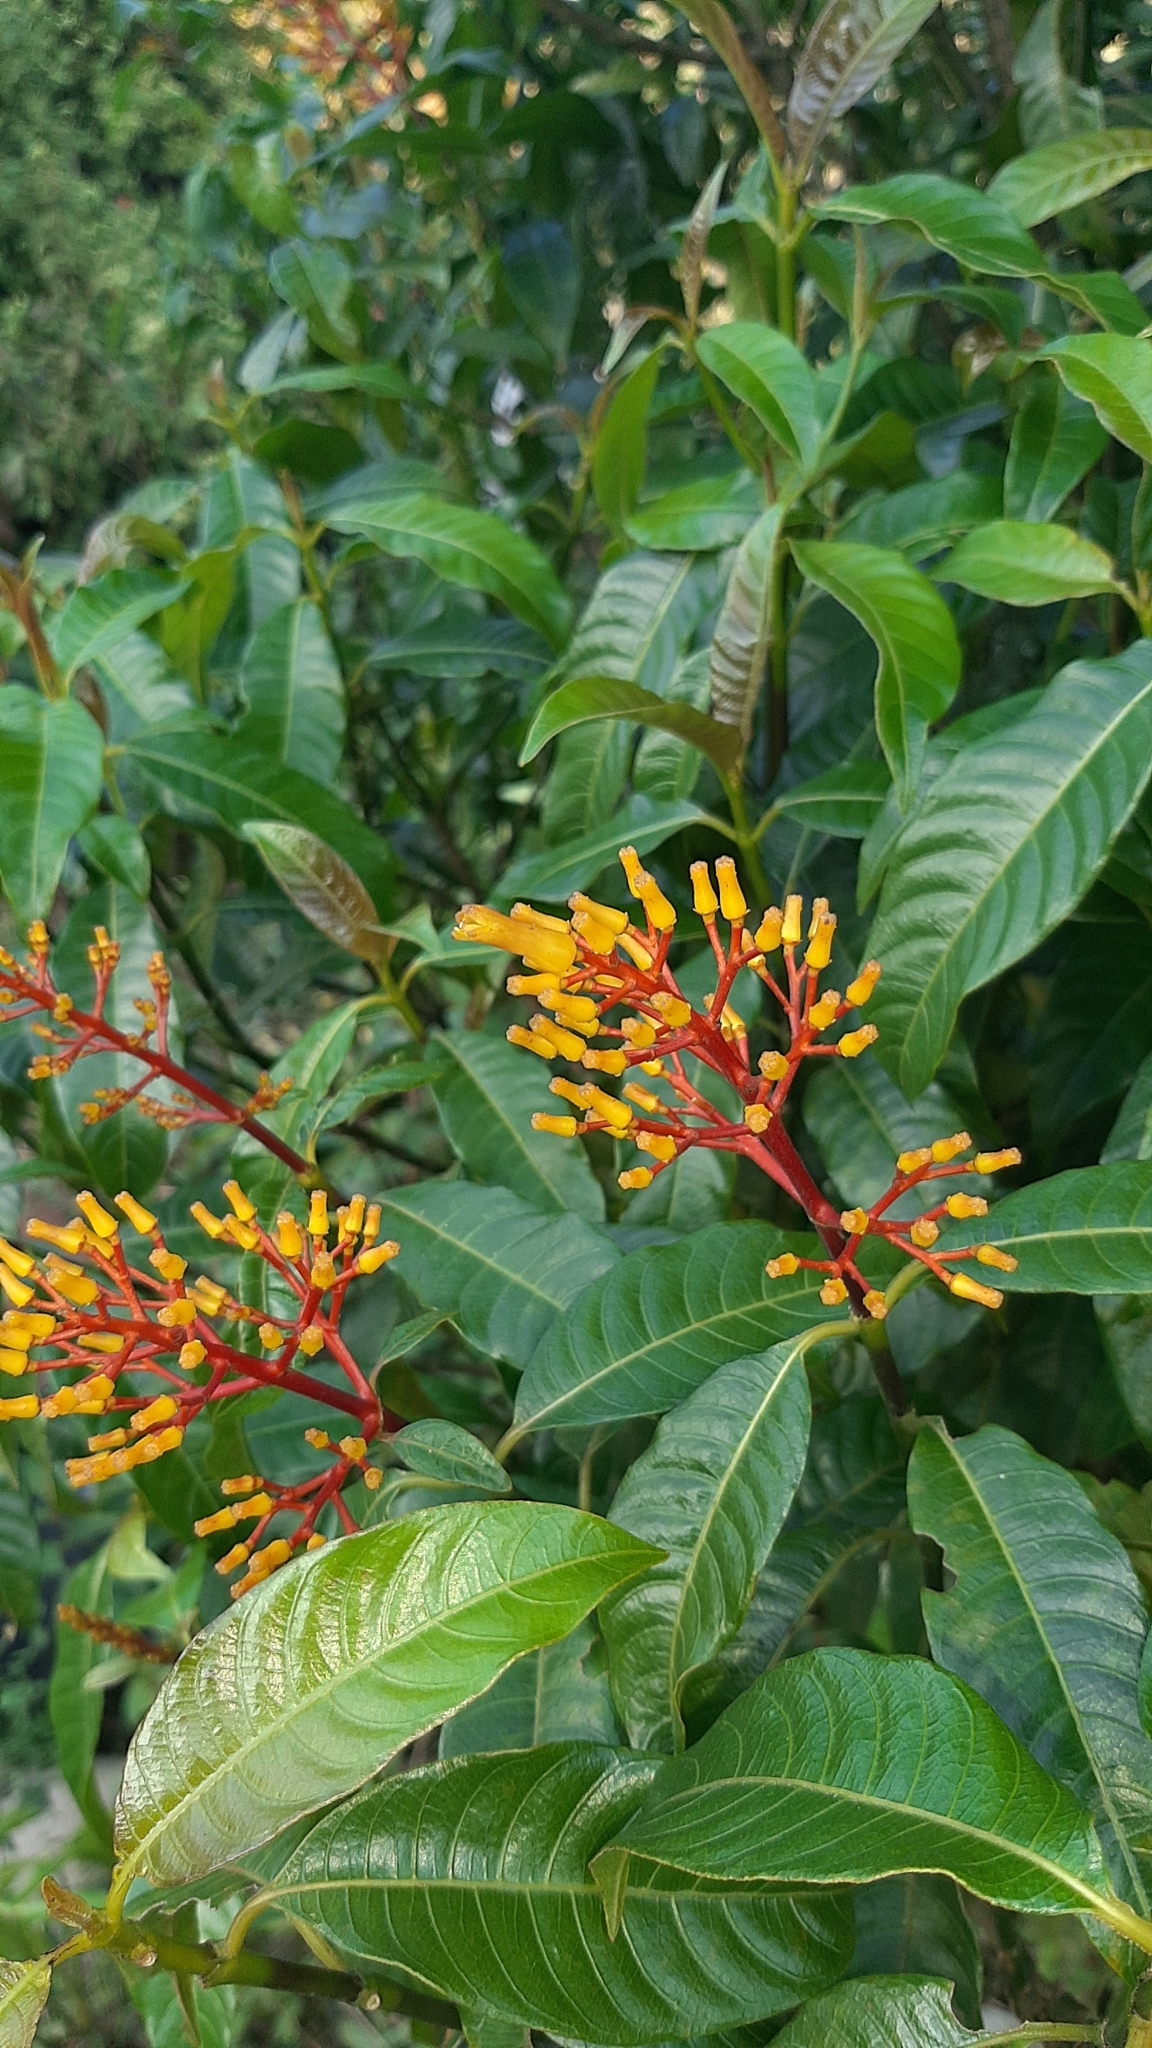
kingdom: Plantae
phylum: Tracheophyta
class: Magnoliopsida
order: Gentianales
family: Rubiaceae
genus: Palicourea
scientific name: Palicourea padifolia
